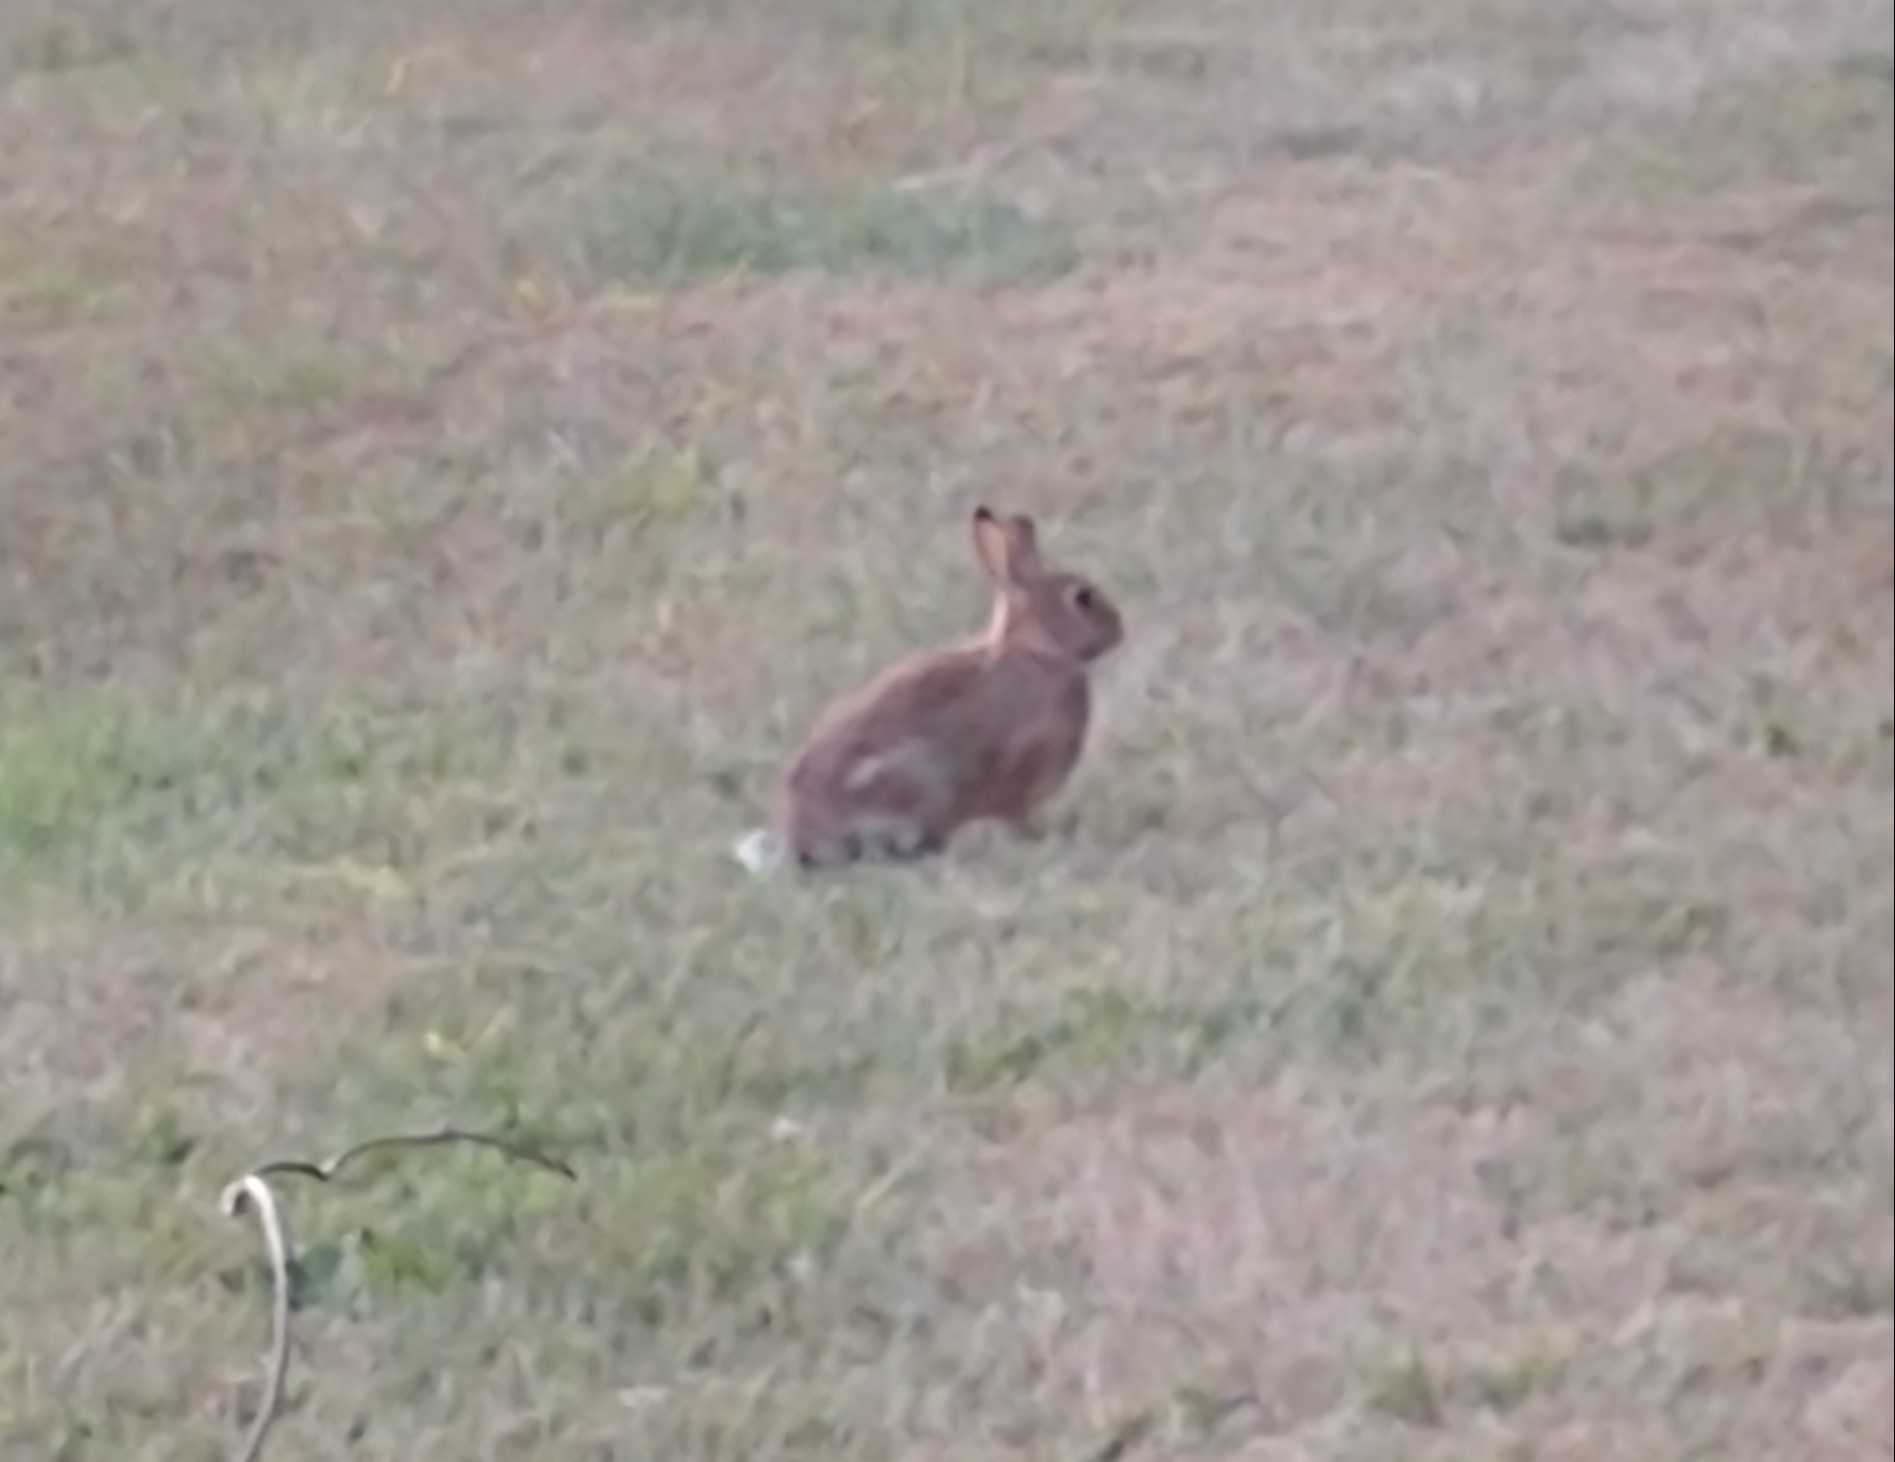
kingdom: Animalia
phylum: Chordata
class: Mammalia
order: Lagomorpha
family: Leporidae
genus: Sylvilagus
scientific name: Sylvilagus floridanus
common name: Eastern cottontail
